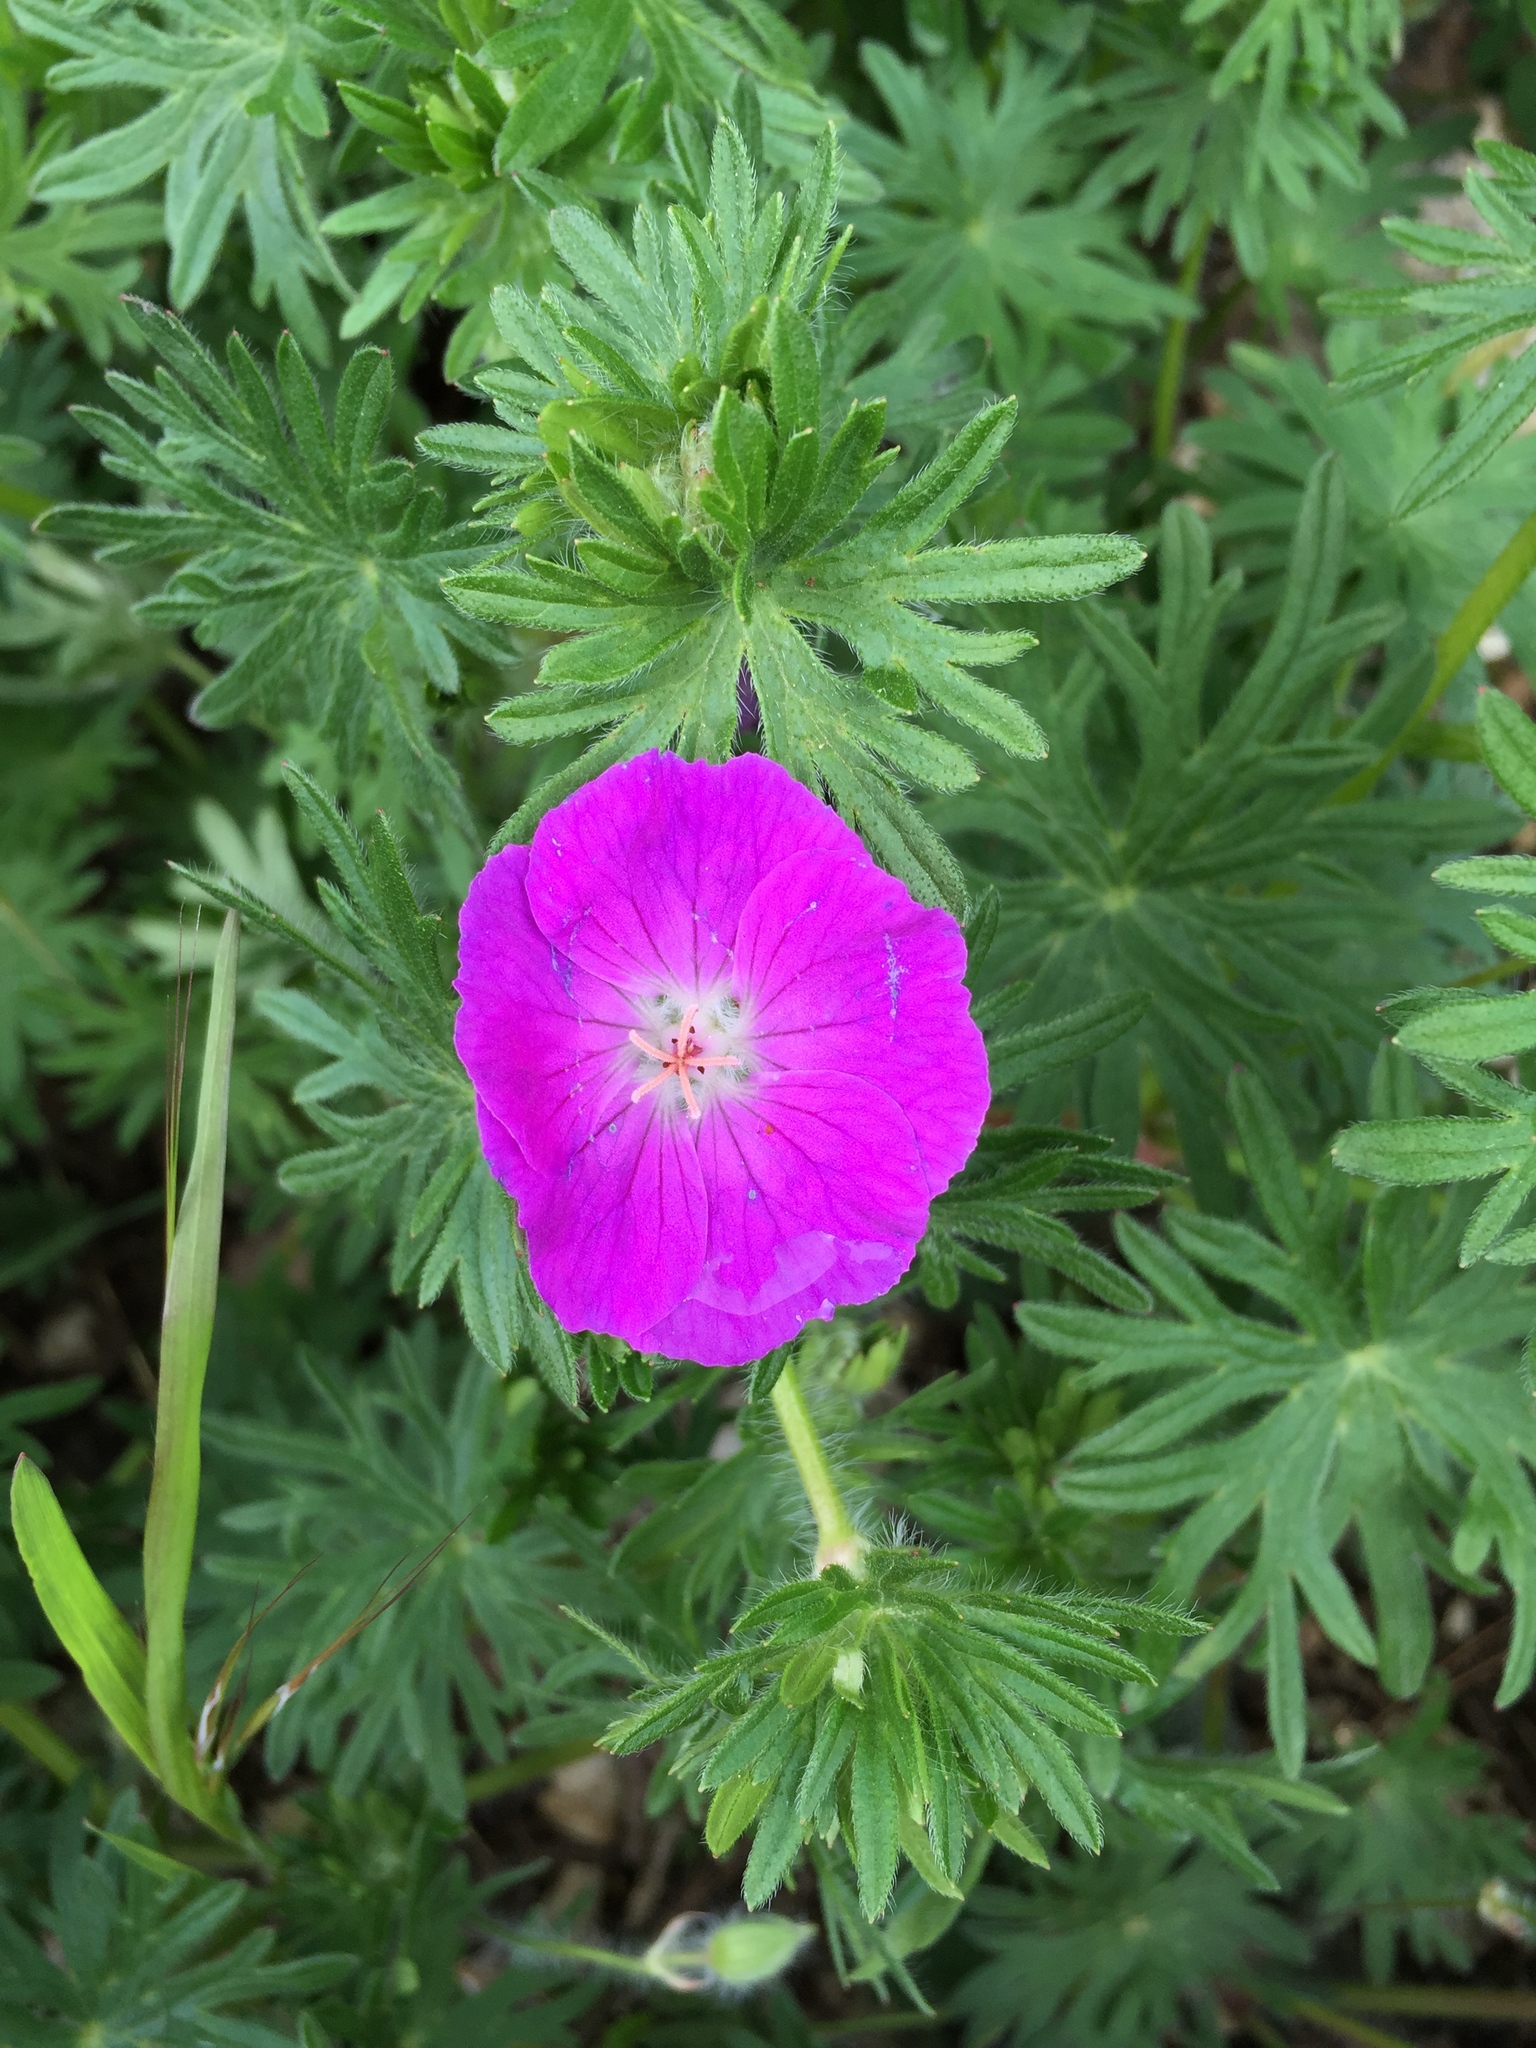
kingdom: Plantae
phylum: Tracheophyta
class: Magnoliopsida
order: Geraniales
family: Geraniaceae
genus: Geranium
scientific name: Geranium sanguineum
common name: Bloody crane's-bill
